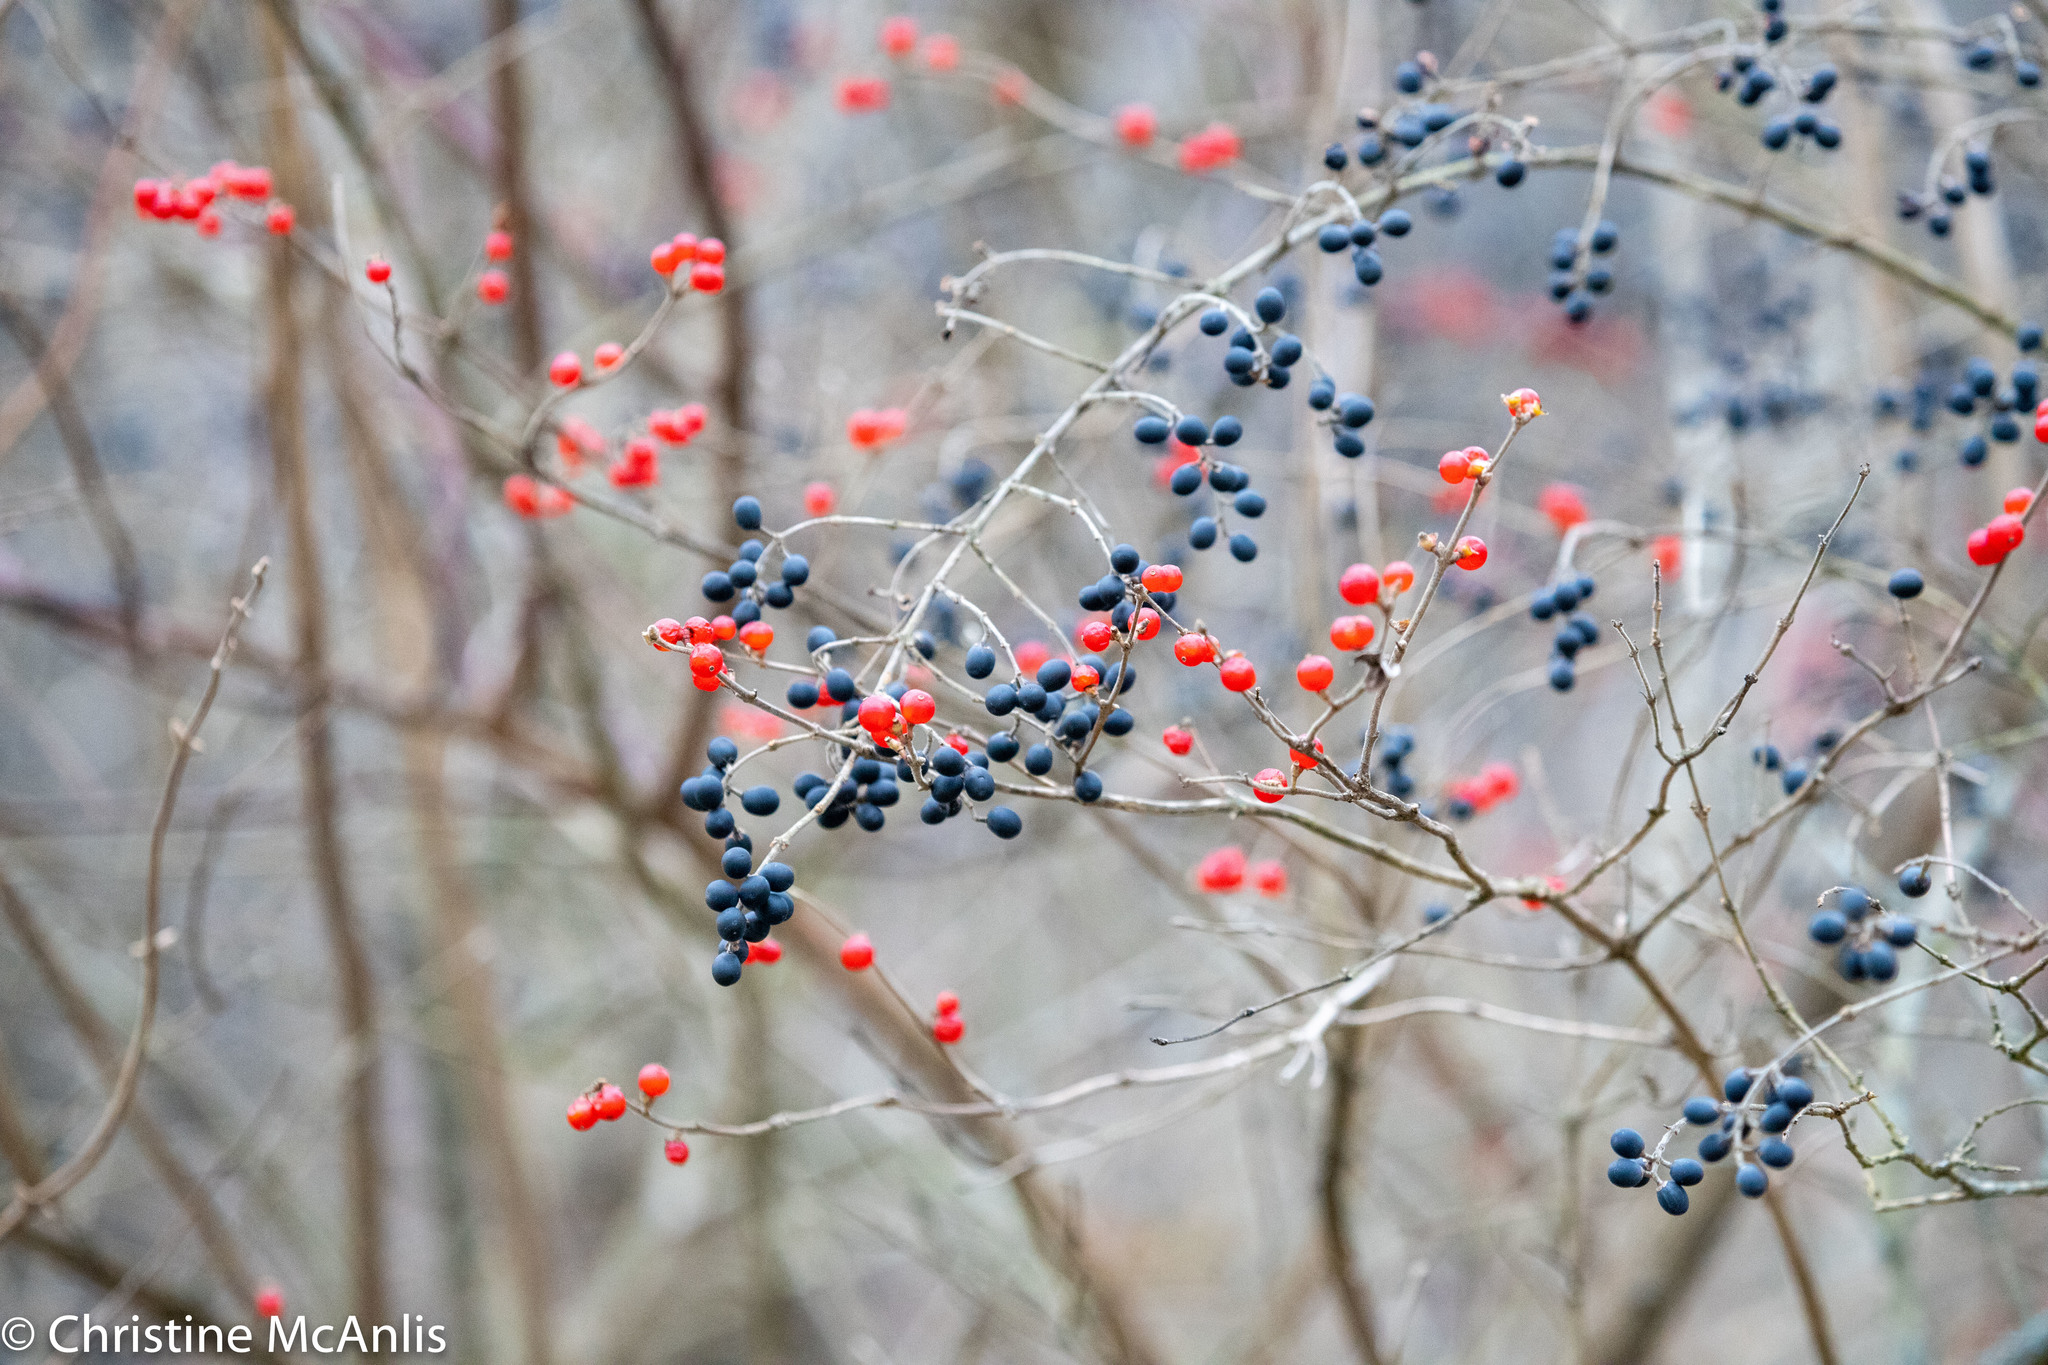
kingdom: Plantae
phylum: Tracheophyta
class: Magnoliopsida
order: Lamiales
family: Oleaceae
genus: Ligustrum
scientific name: Ligustrum obtusifolium
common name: Border privet
